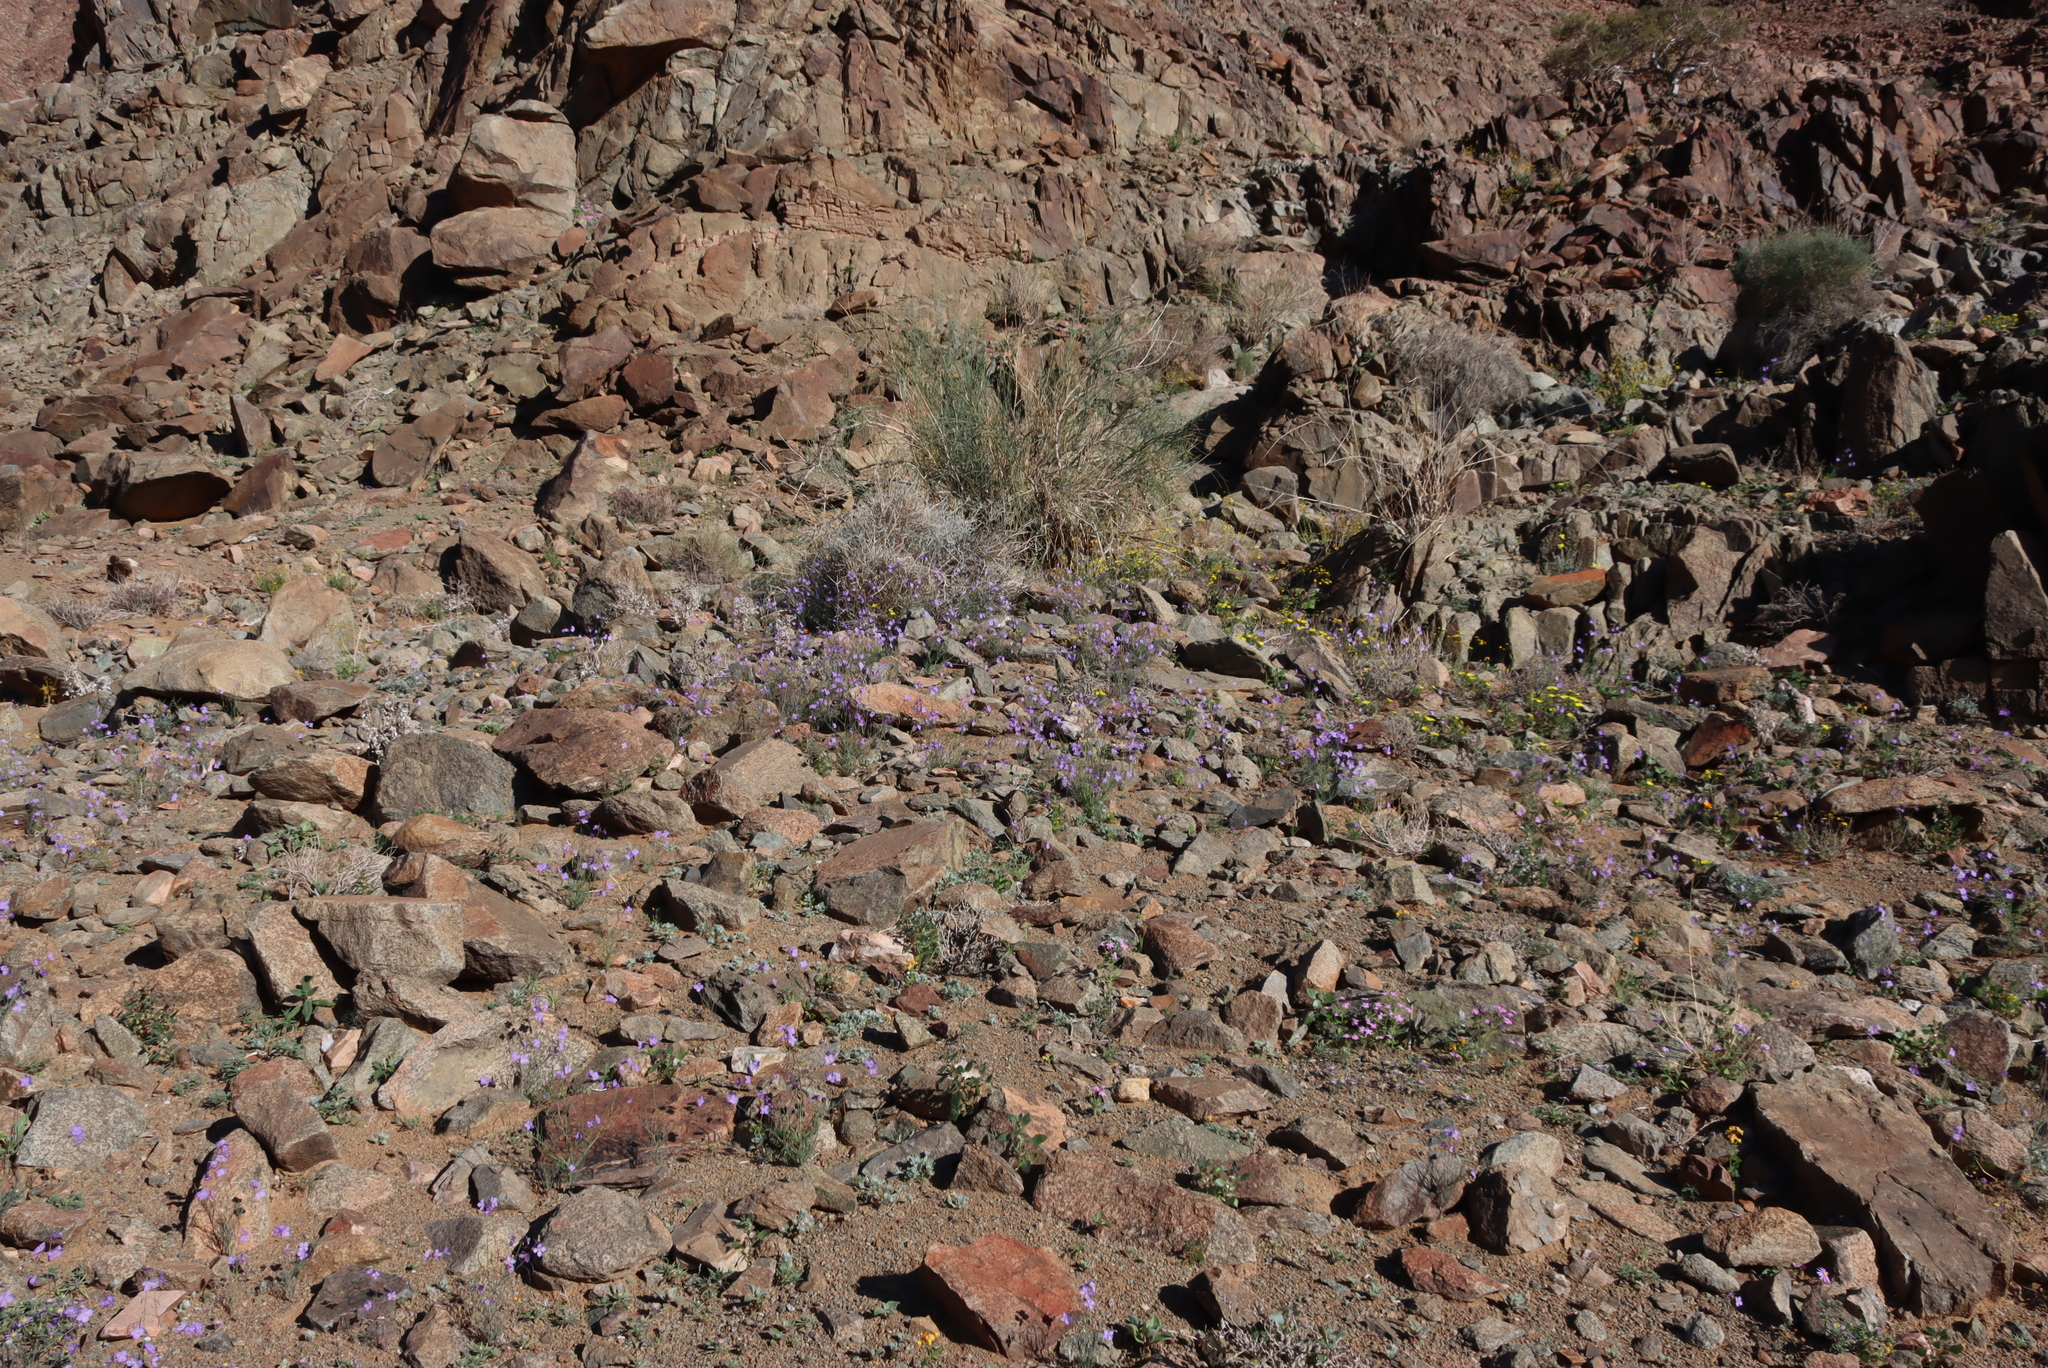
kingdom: Plantae
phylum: Tracheophyta
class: Magnoliopsida
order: Brassicales
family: Brassicaceae
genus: Heliophila
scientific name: Heliophila trifurca
